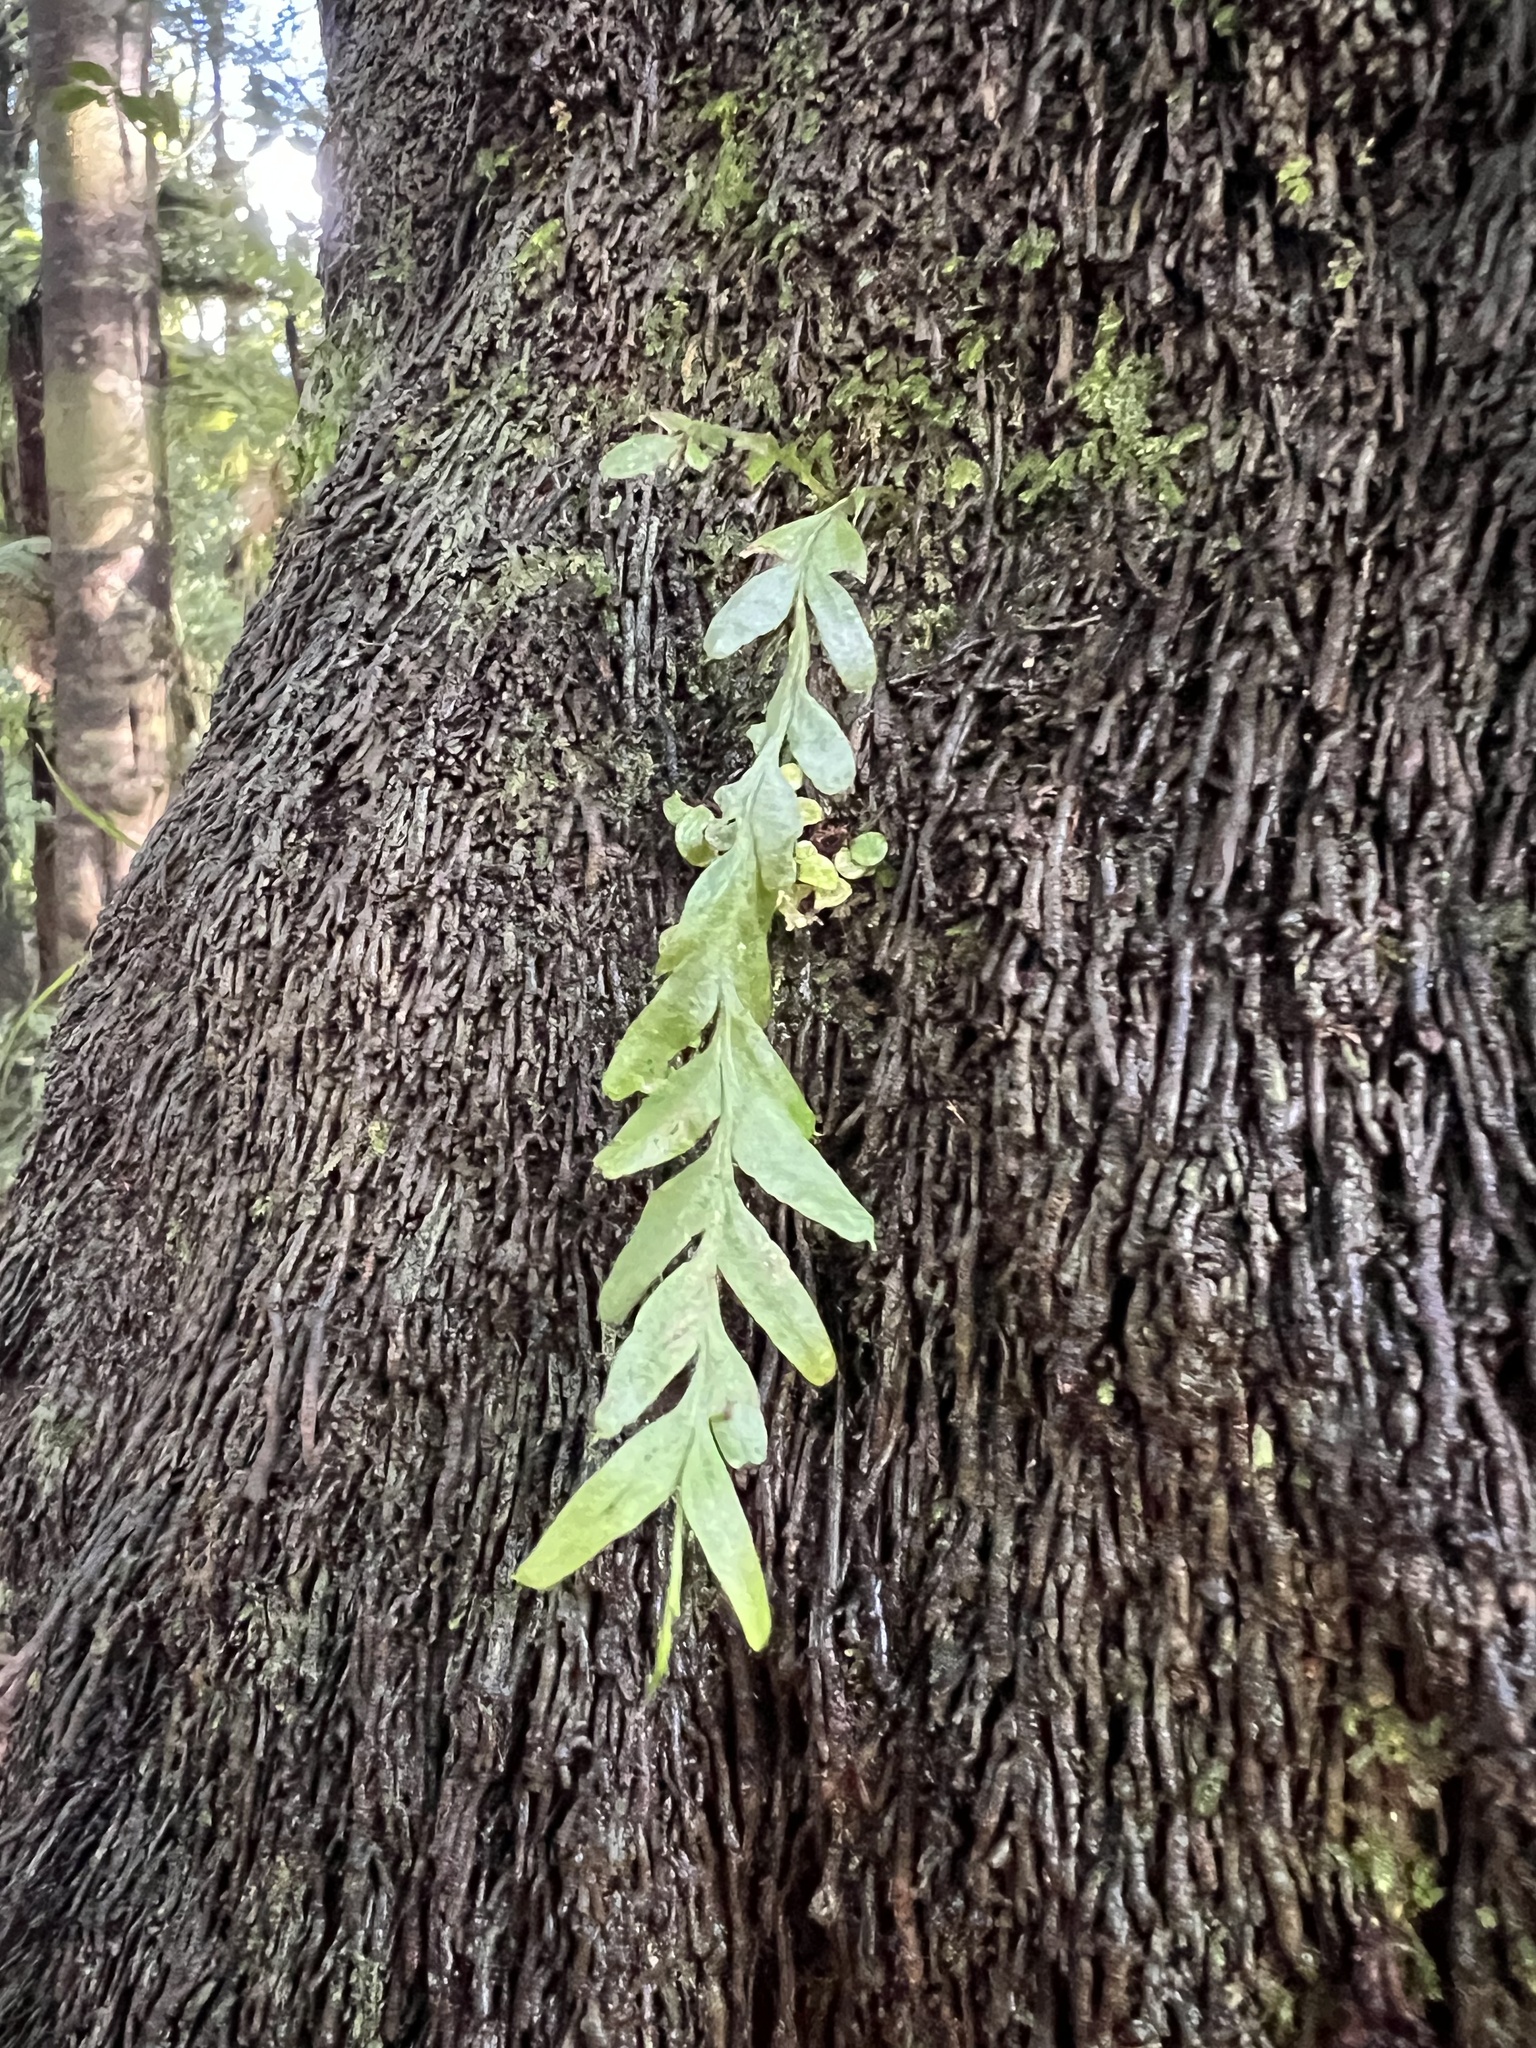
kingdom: Plantae
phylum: Tracheophyta
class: Polypodiopsida
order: Psilotales
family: Psilotaceae
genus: Tmesipteris
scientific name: Tmesipteris elongata
